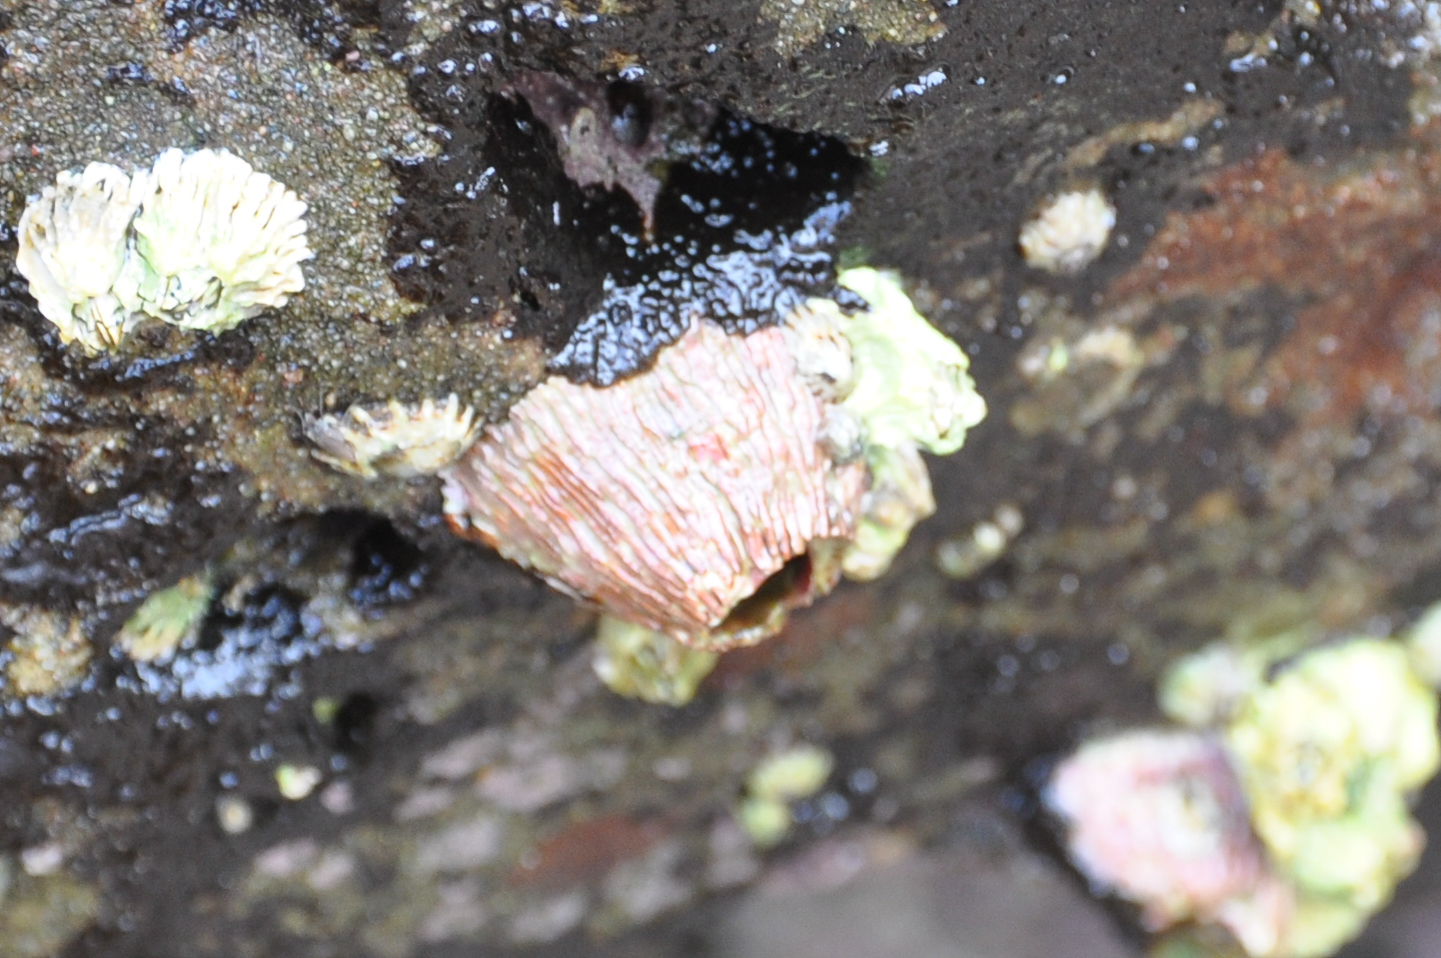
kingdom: Animalia
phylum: Arthropoda
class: Maxillopoda
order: Sessilia
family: Tetraclitidae
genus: Tetraclita
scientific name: Tetraclita rubescens
